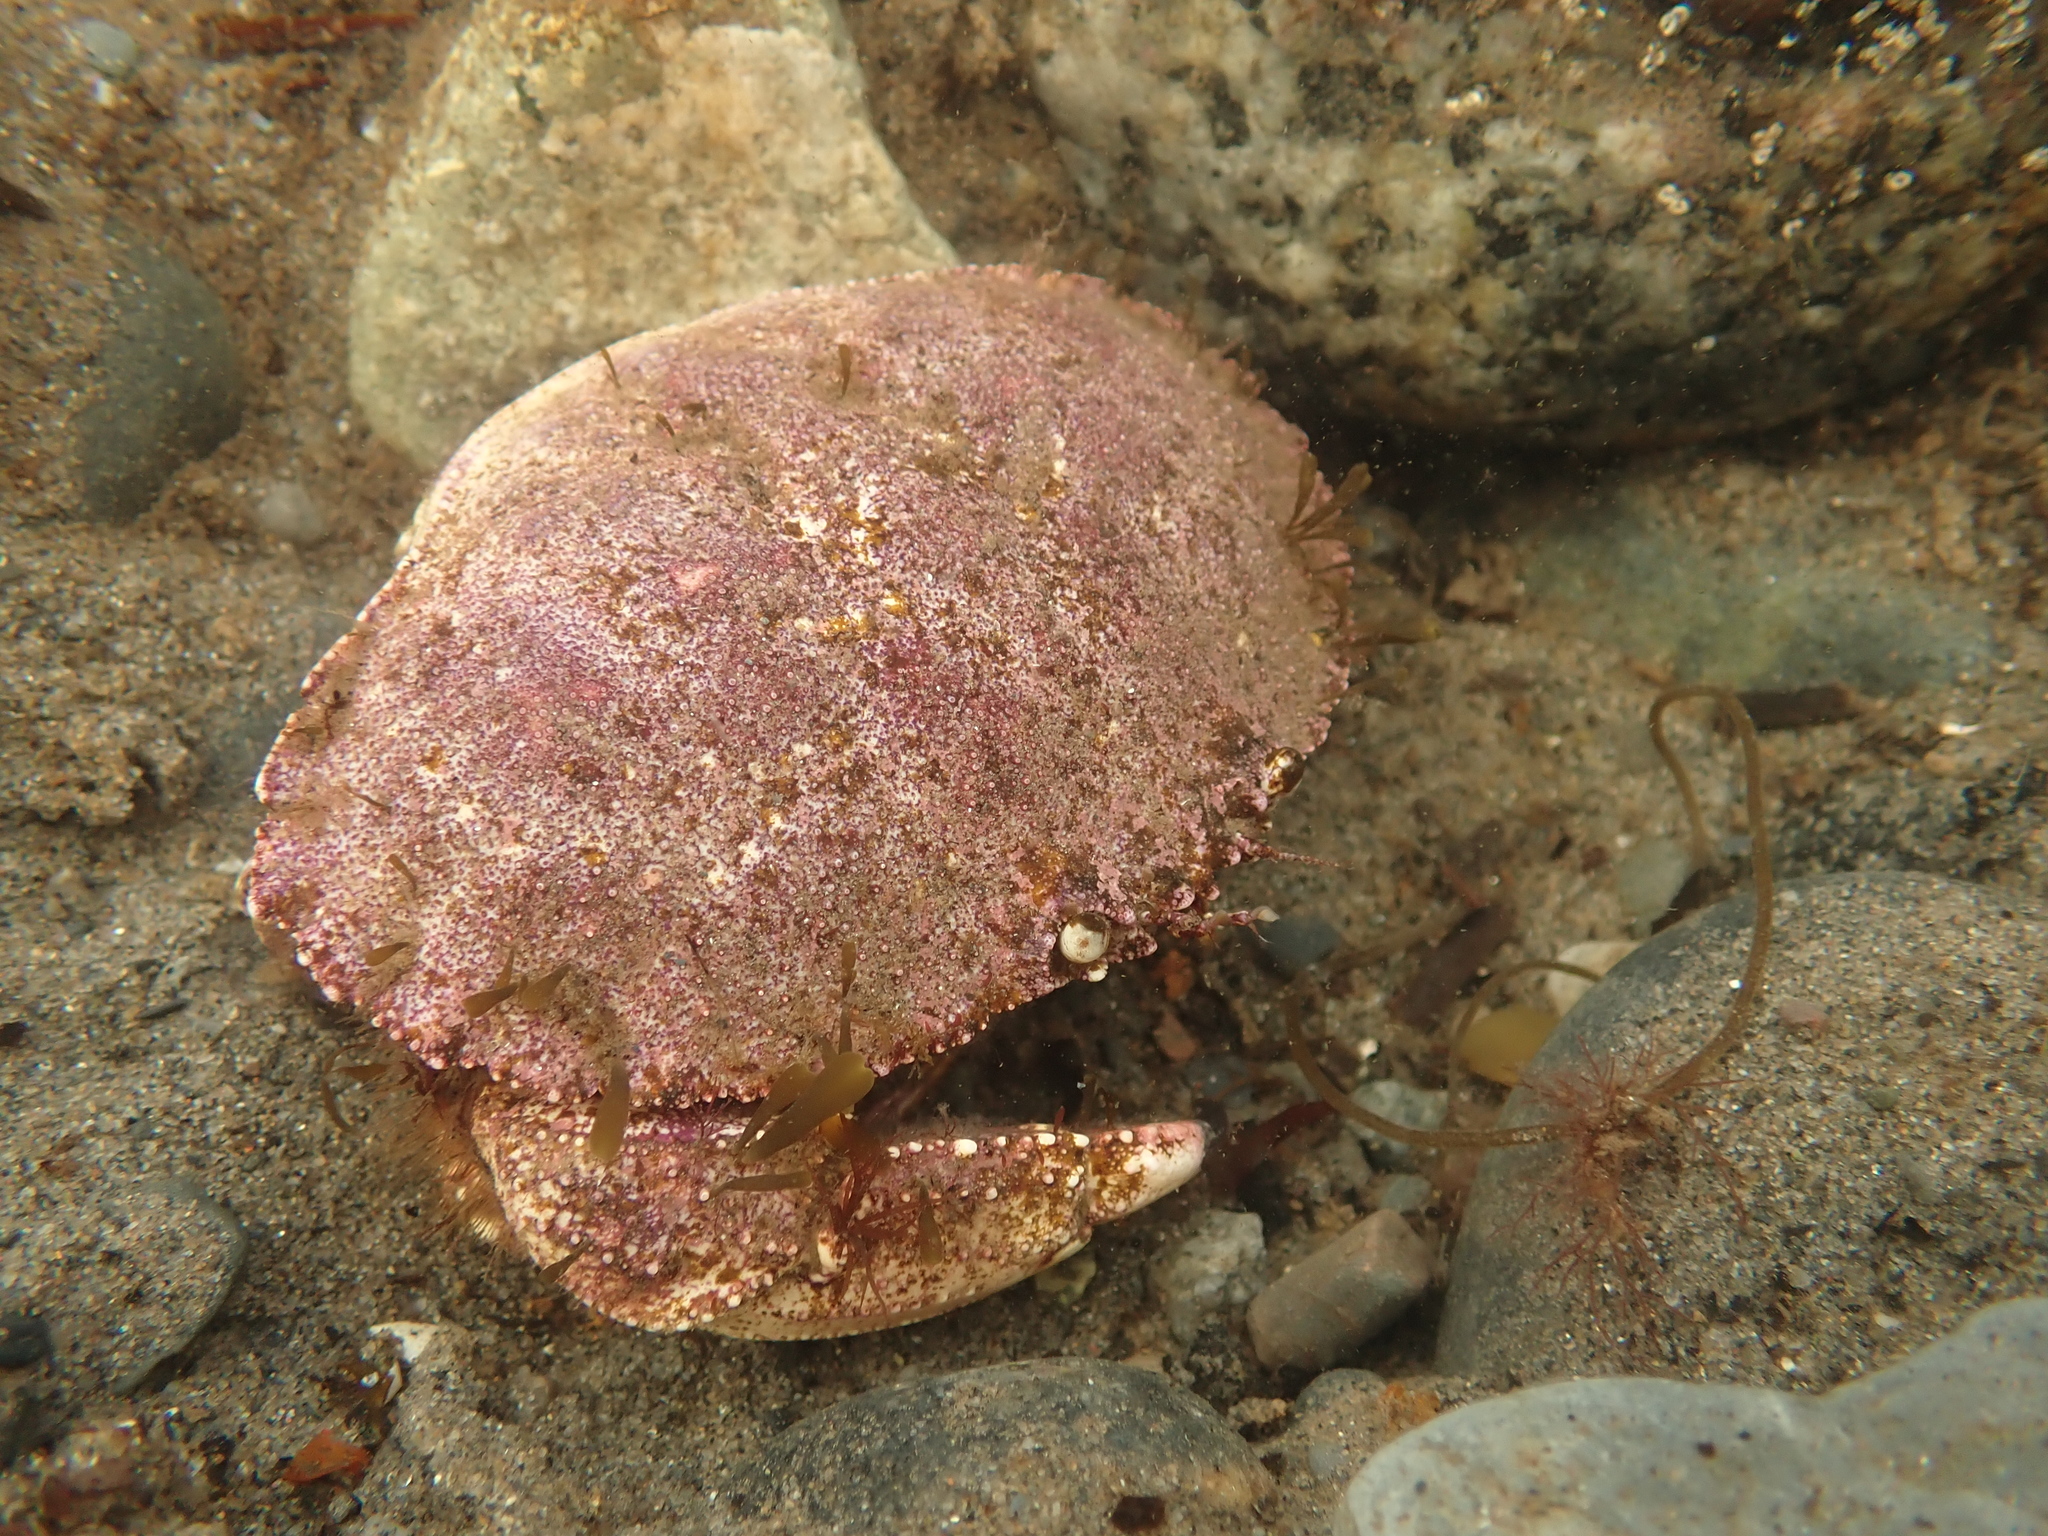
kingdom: Animalia
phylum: Arthropoda
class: Malacostraca
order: Decapoda
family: Cancridae
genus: Cancer
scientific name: Cancer borealis
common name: Jonah crab
